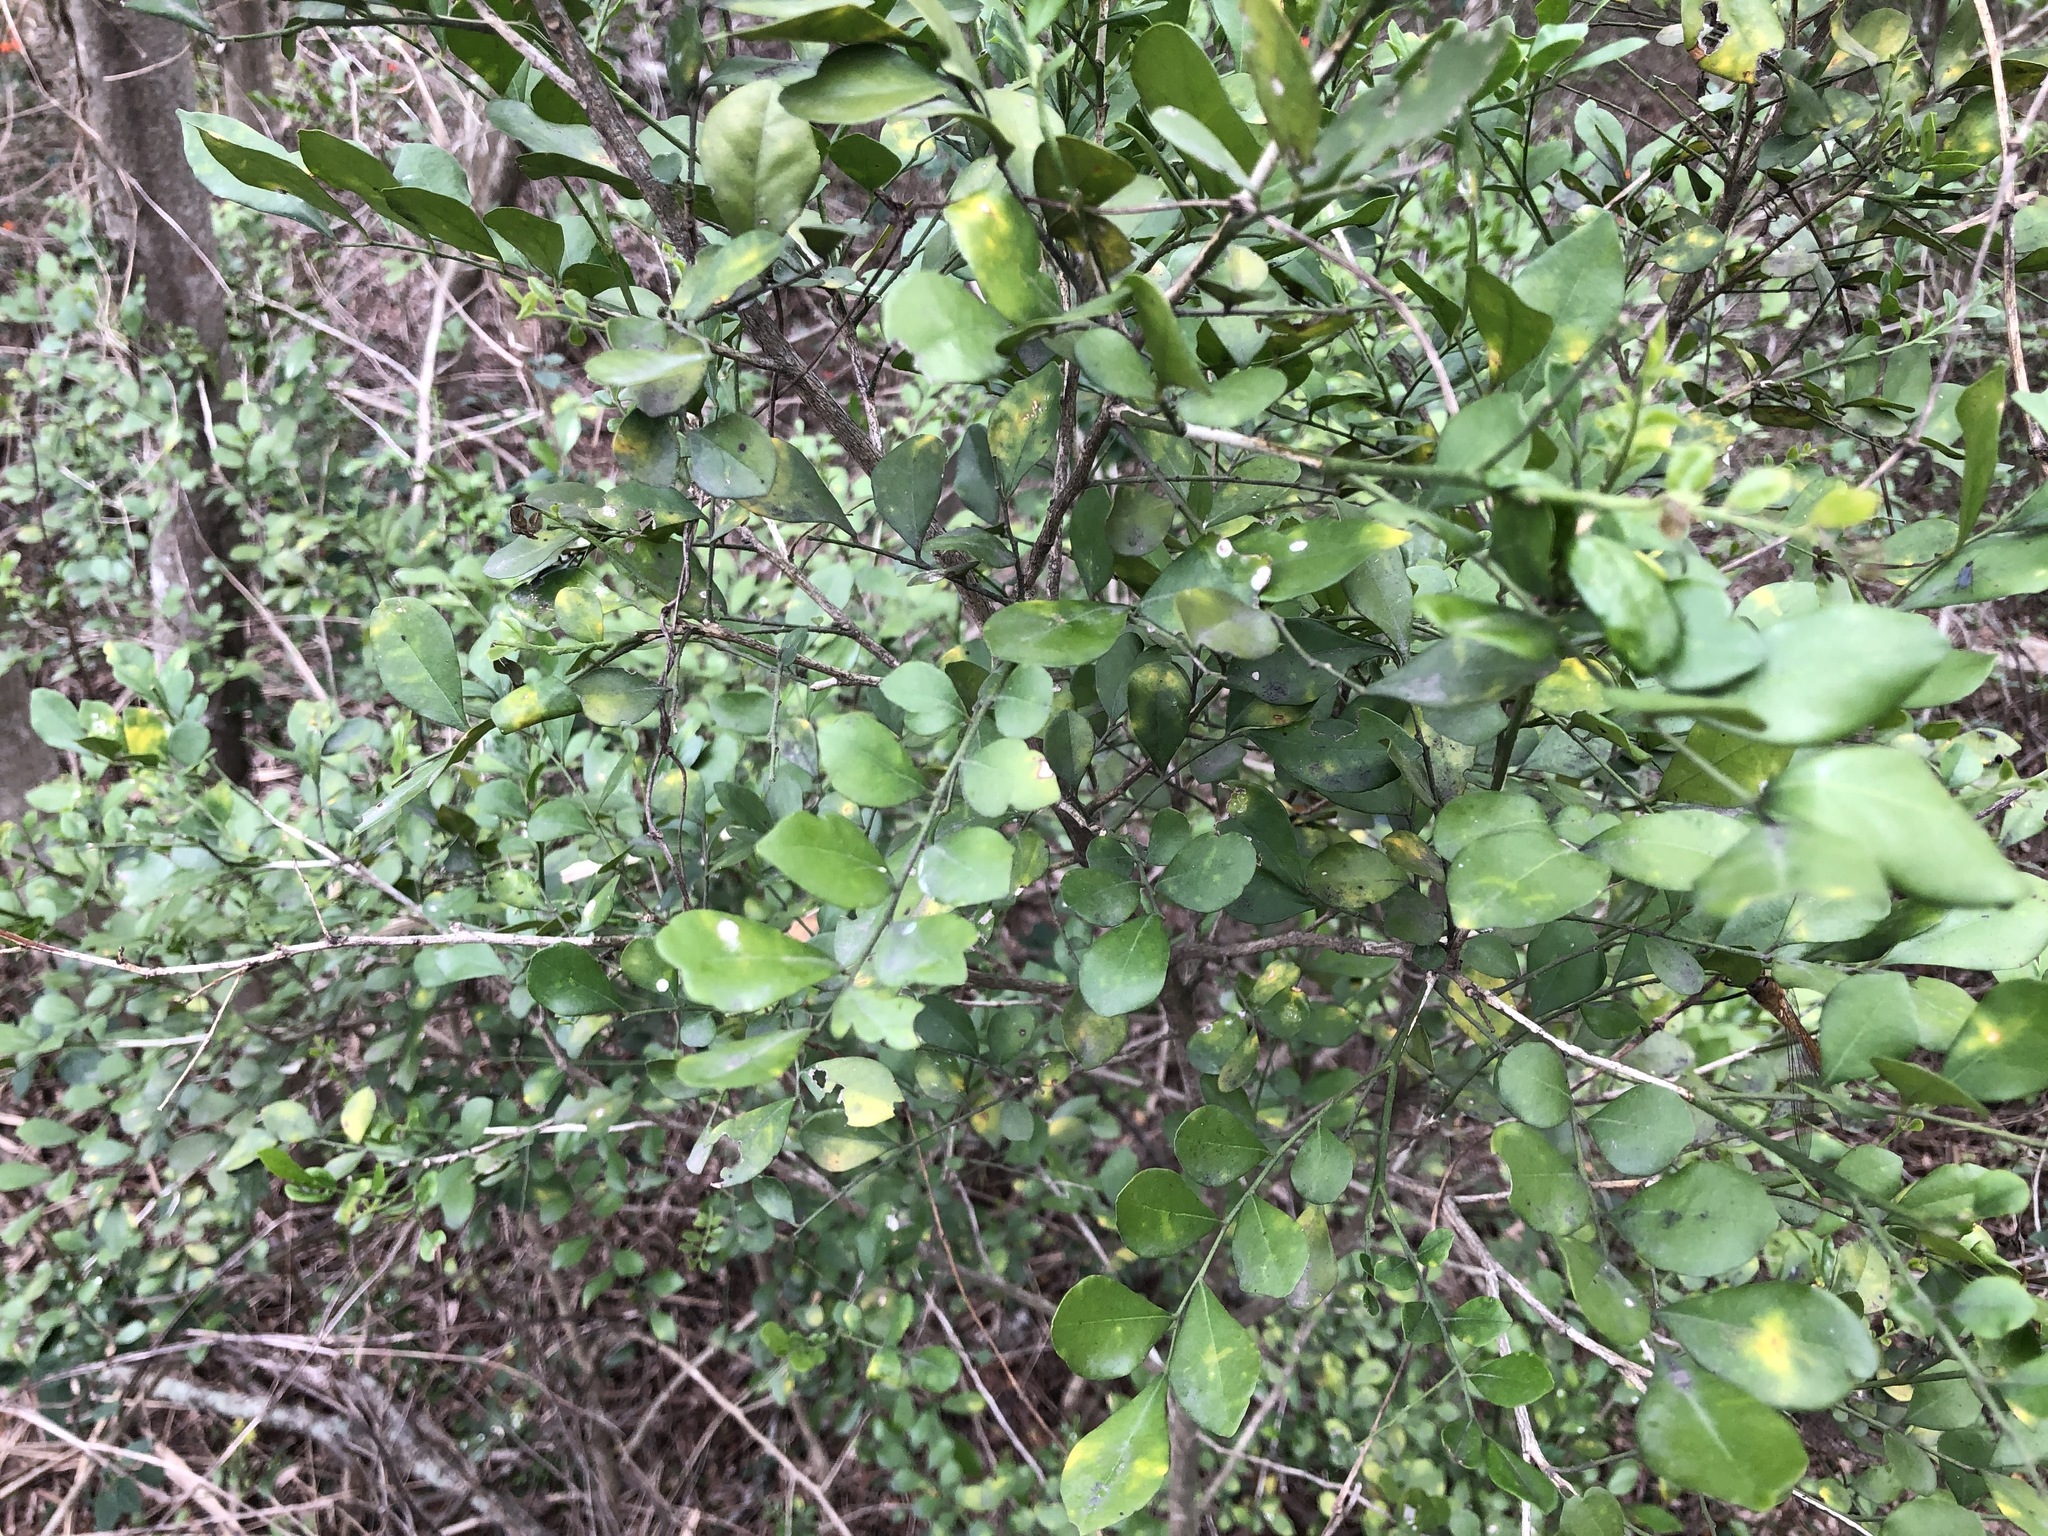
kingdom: Plantae
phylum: Tracheophyta
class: Magnoliopsida
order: Rosales
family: Moraceae
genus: Maclura
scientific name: Maclura cochinchinensis
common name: Cockspurthorn
